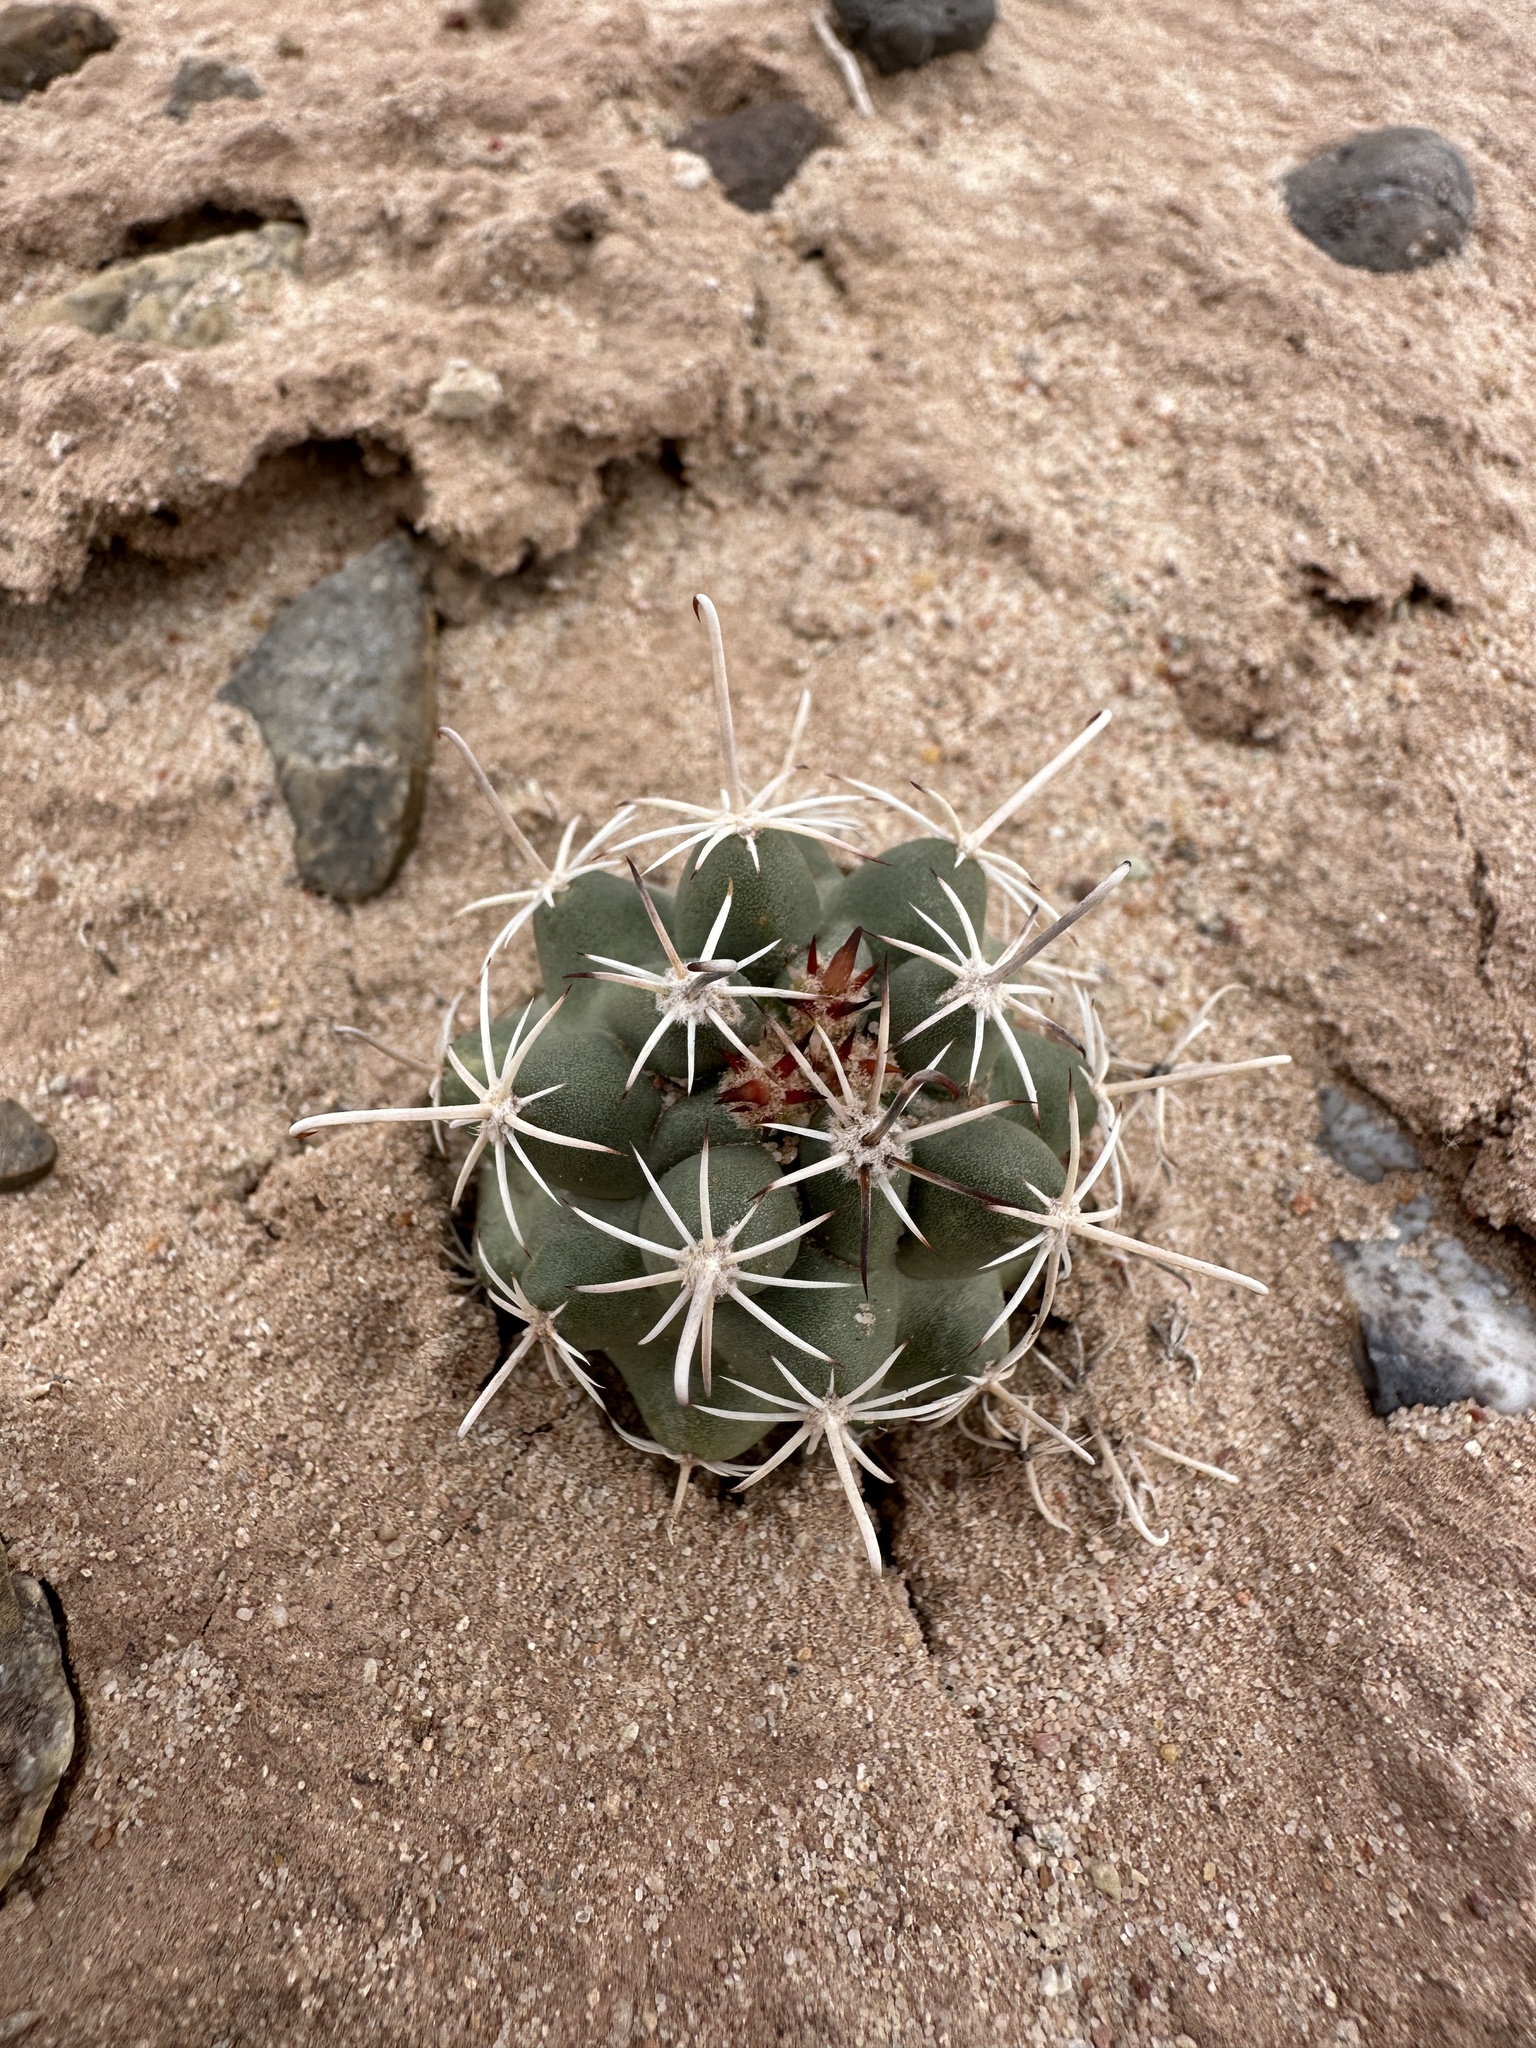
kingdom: Plantae
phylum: Tracheophyta
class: Magnoliopsida
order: Caryophyllales
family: Cactaceae
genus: Sclerocactus
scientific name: Sclerocactus parviflorus
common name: Small-flower fishhook cactus
